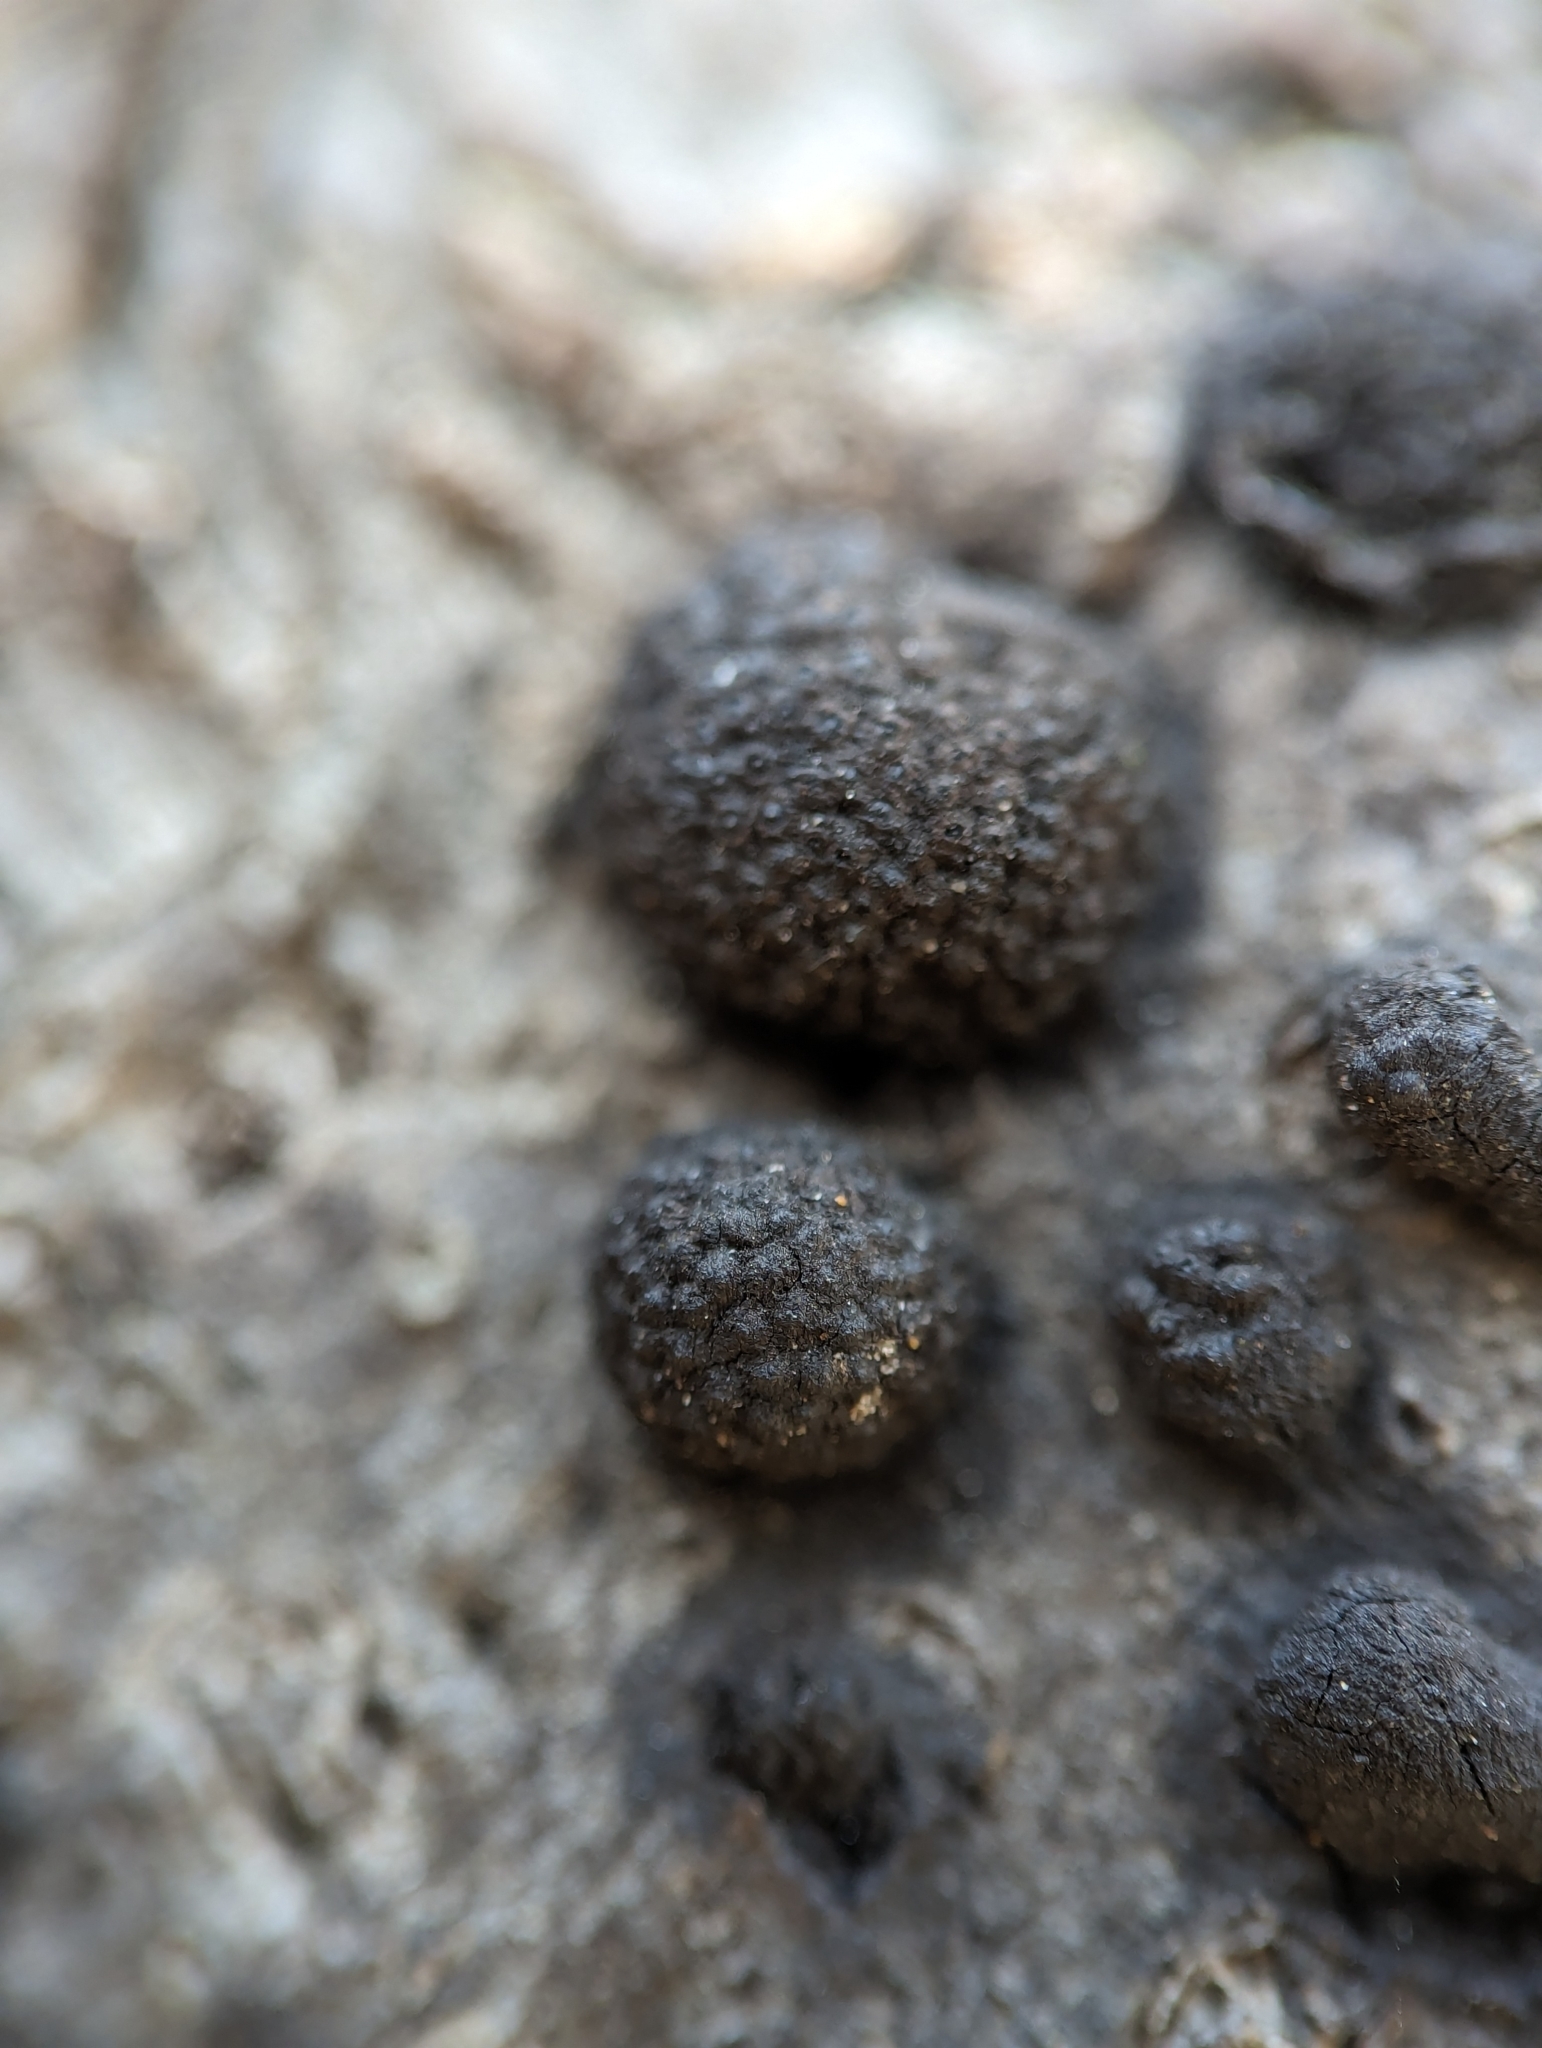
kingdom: Fungi
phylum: Ascomycota
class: Sordariomycetes
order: Xylariales
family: Hypoxylaceae
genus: Annulohypoxylon
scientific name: Annulohypoxylon annulatum
